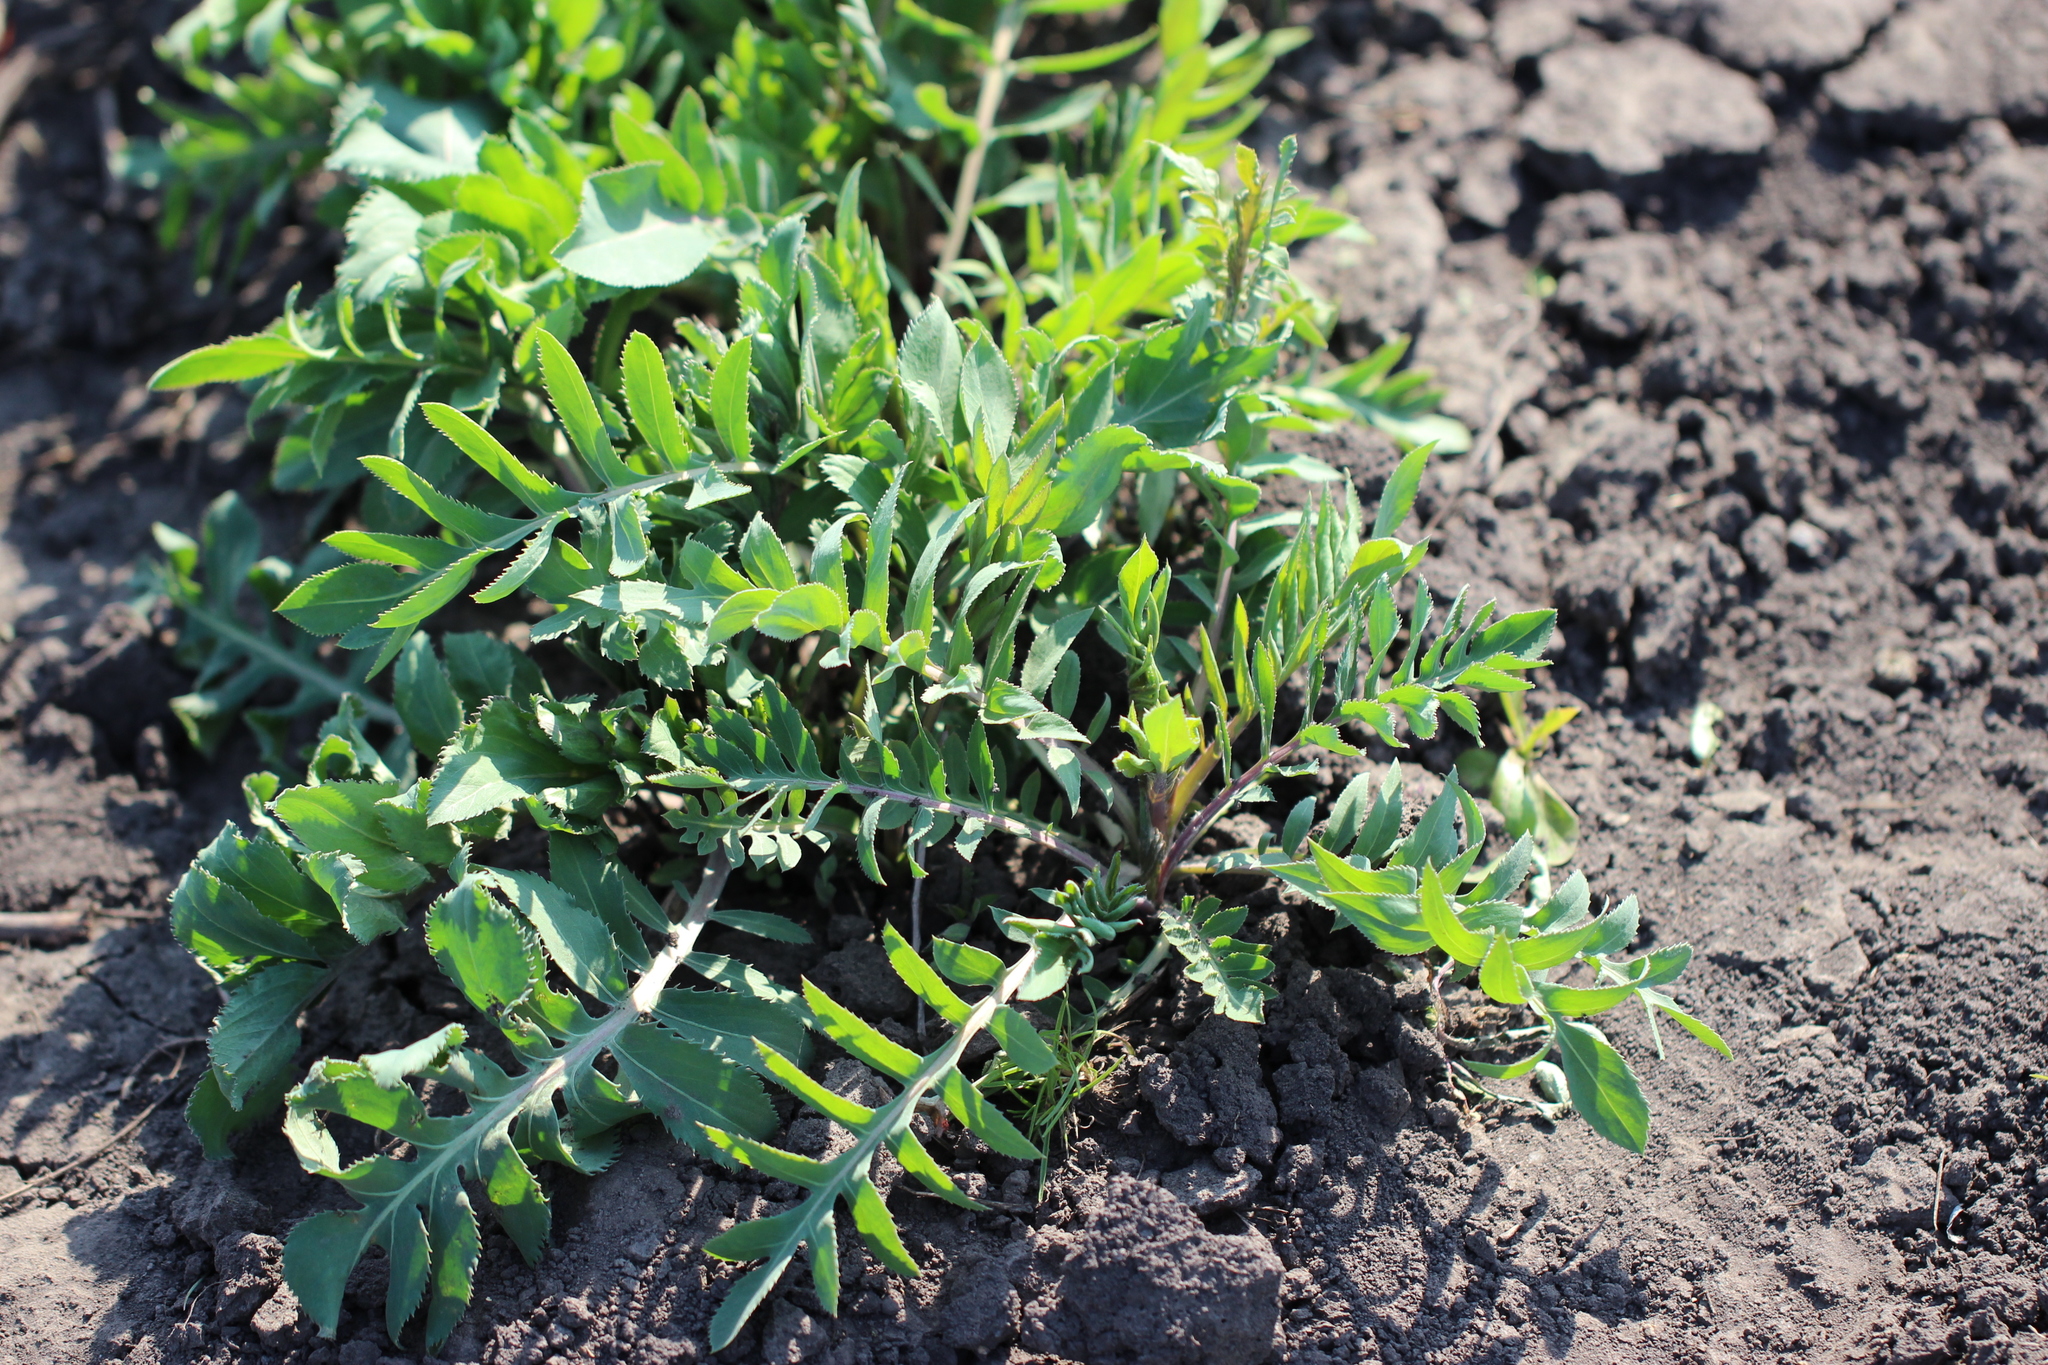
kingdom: Plantae
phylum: Tracheophyta
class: Magnoliopsida
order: Asterales
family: Asteraceae
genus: Centaurea
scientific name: Centaurea scabiosa
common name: Greater knapweed
